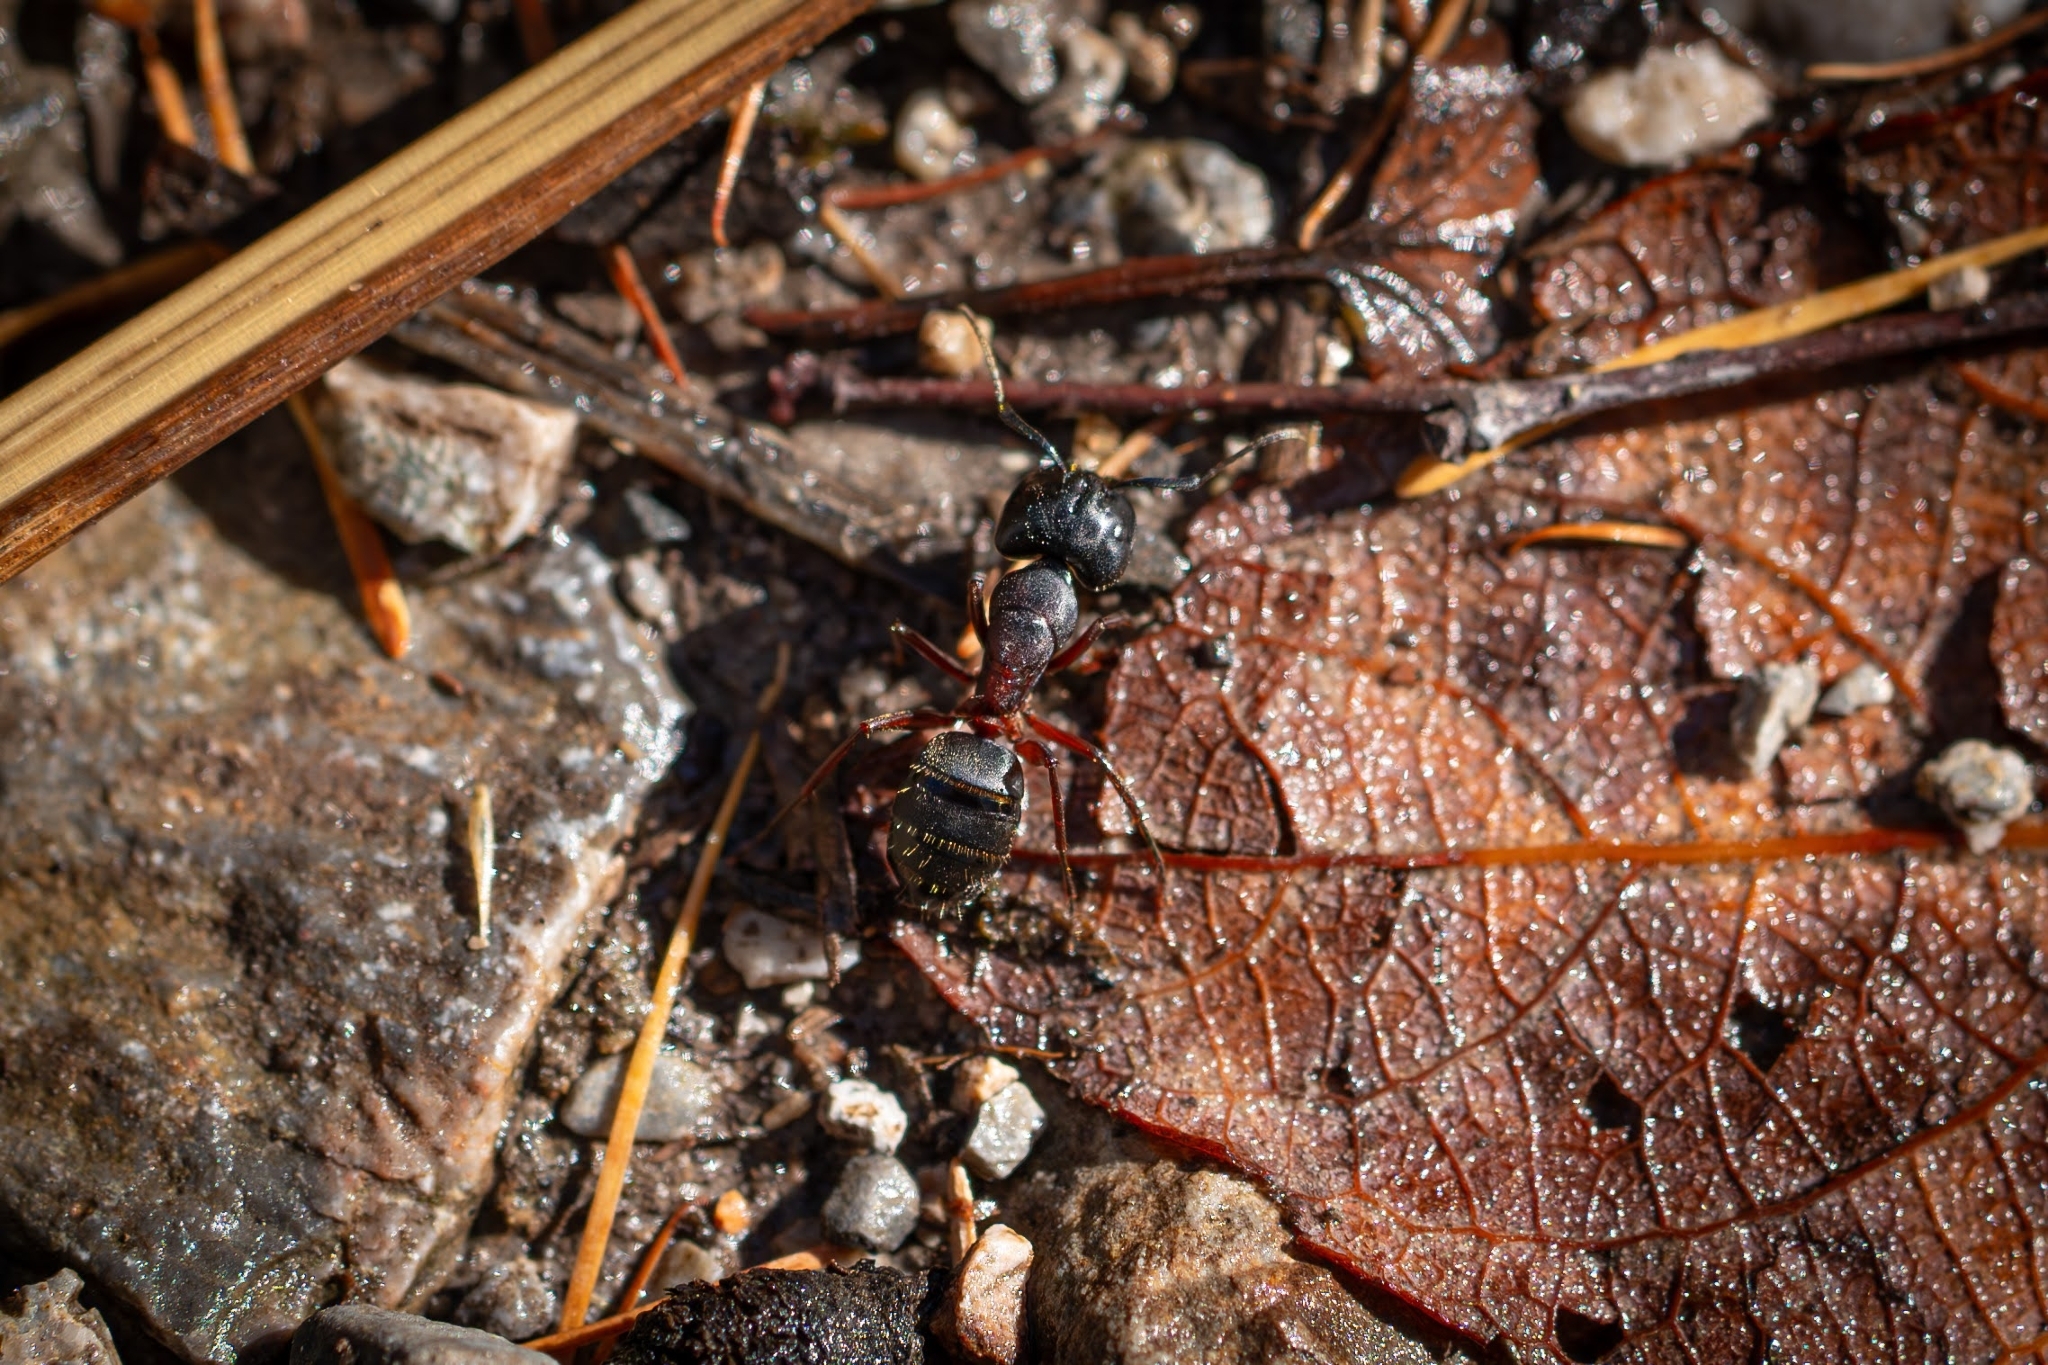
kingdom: Animalia
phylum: Arthropoda
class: Insecta
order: Hymenoptera
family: Formicidae
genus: Camponotus
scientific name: Camponotus herculeanus
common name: Hercules ant
